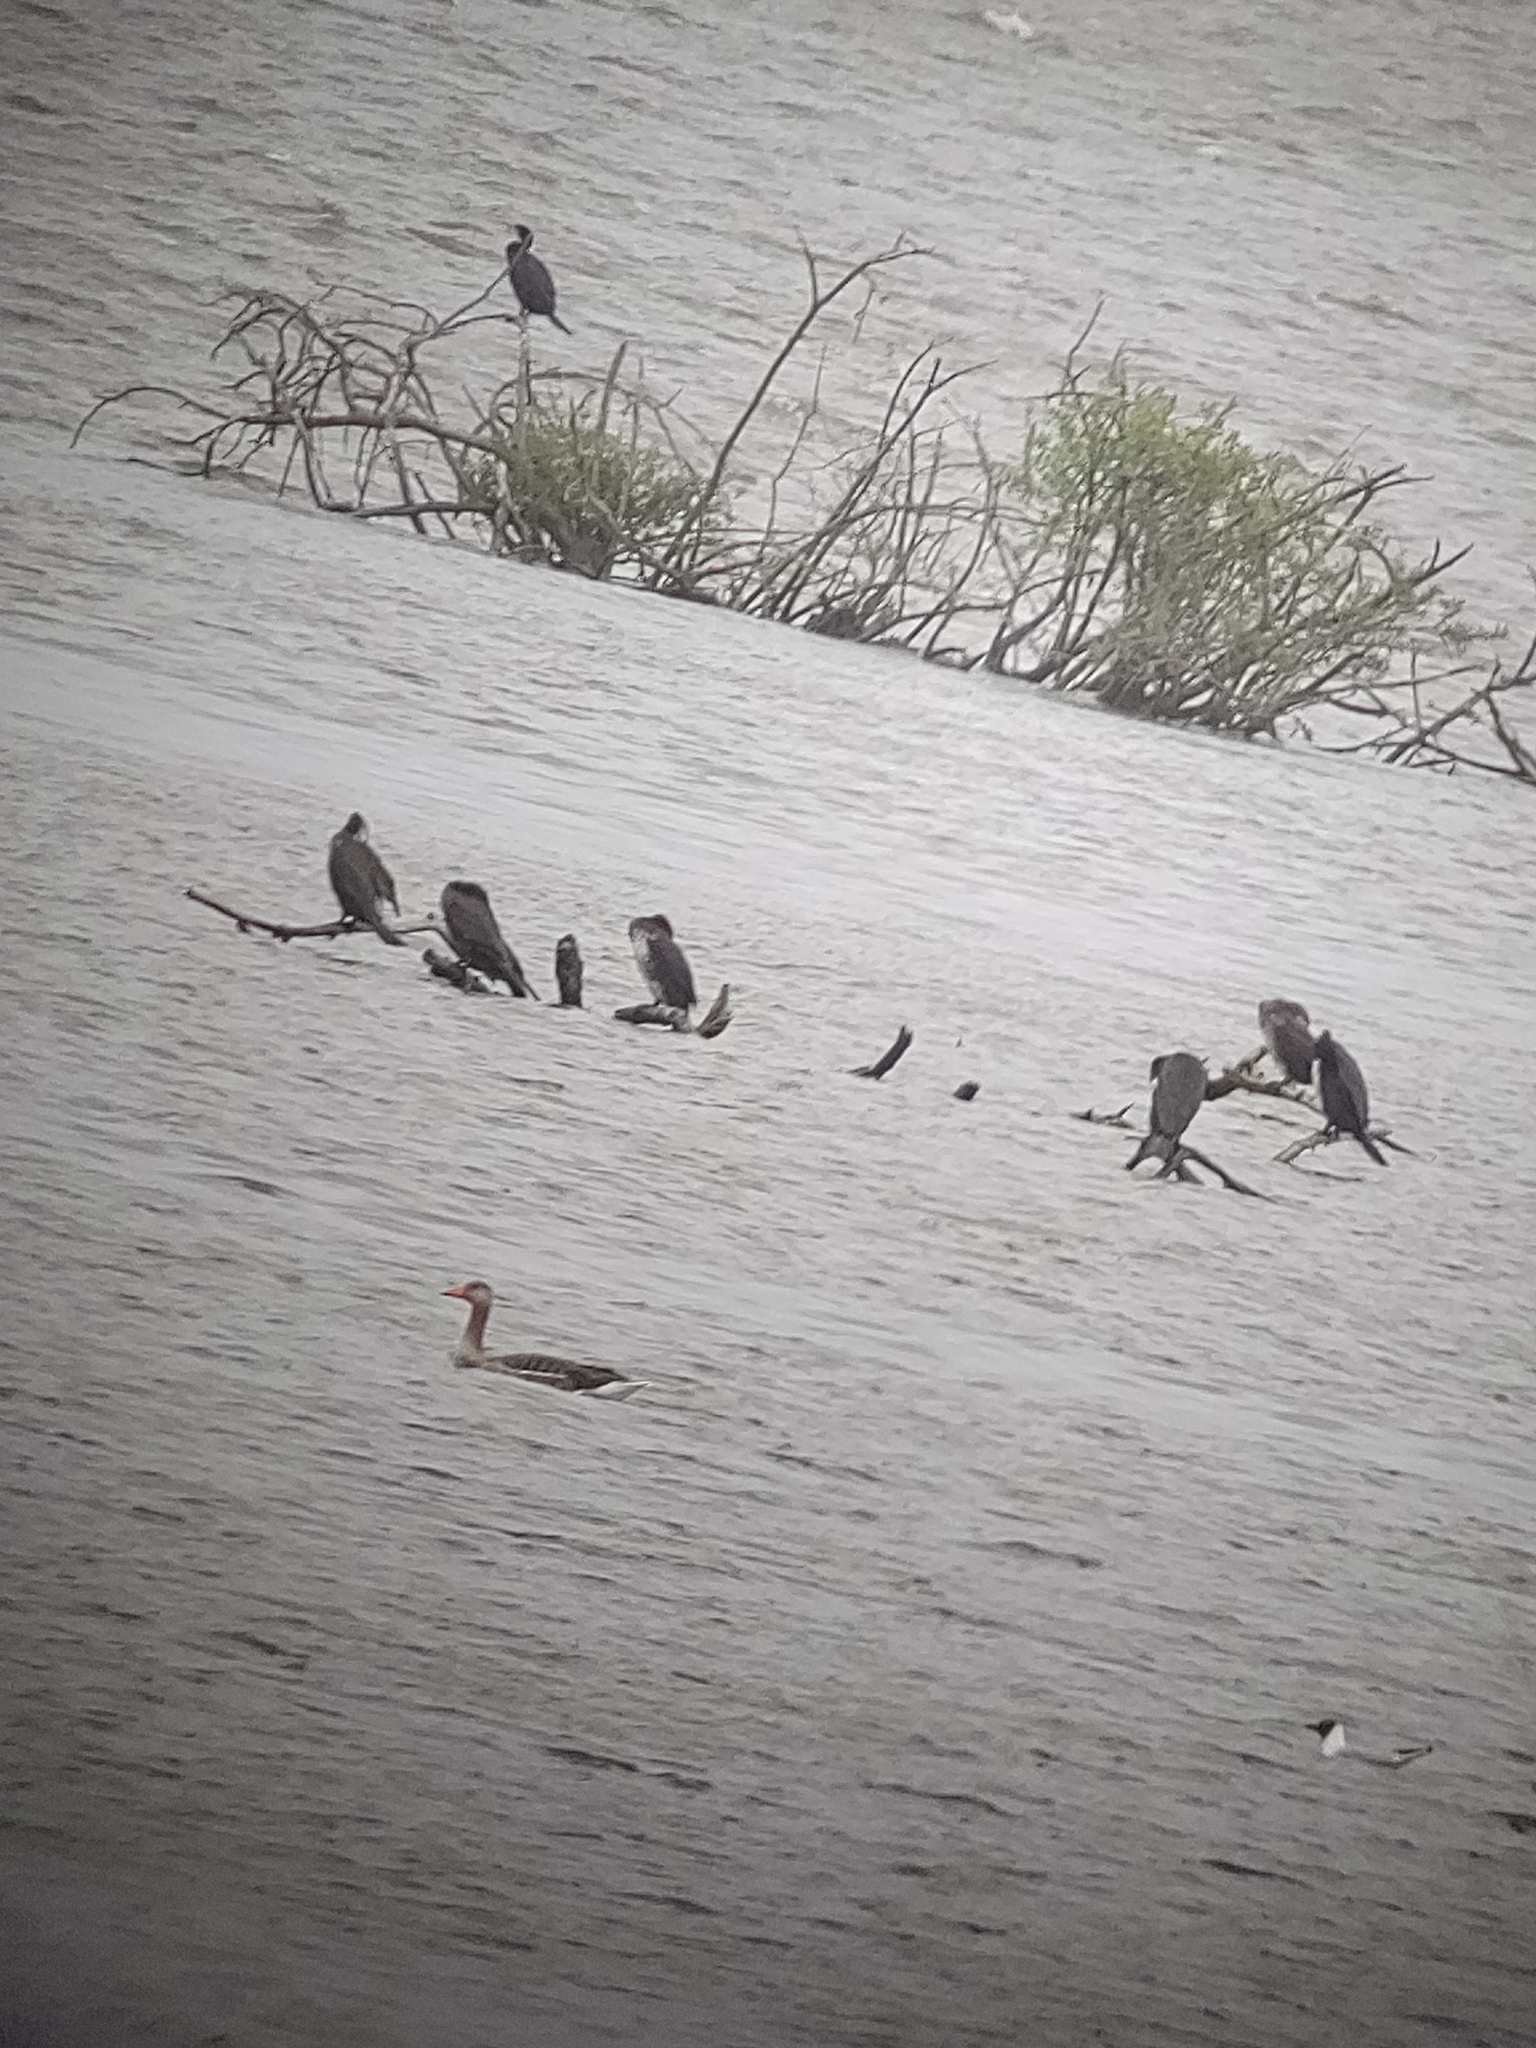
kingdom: Animalia
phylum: Chordata
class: Aves
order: Suliformes
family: Phalacrocoracidae
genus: Phalacrocorax
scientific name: Phalacrocorax carbo
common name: Great cormorant
